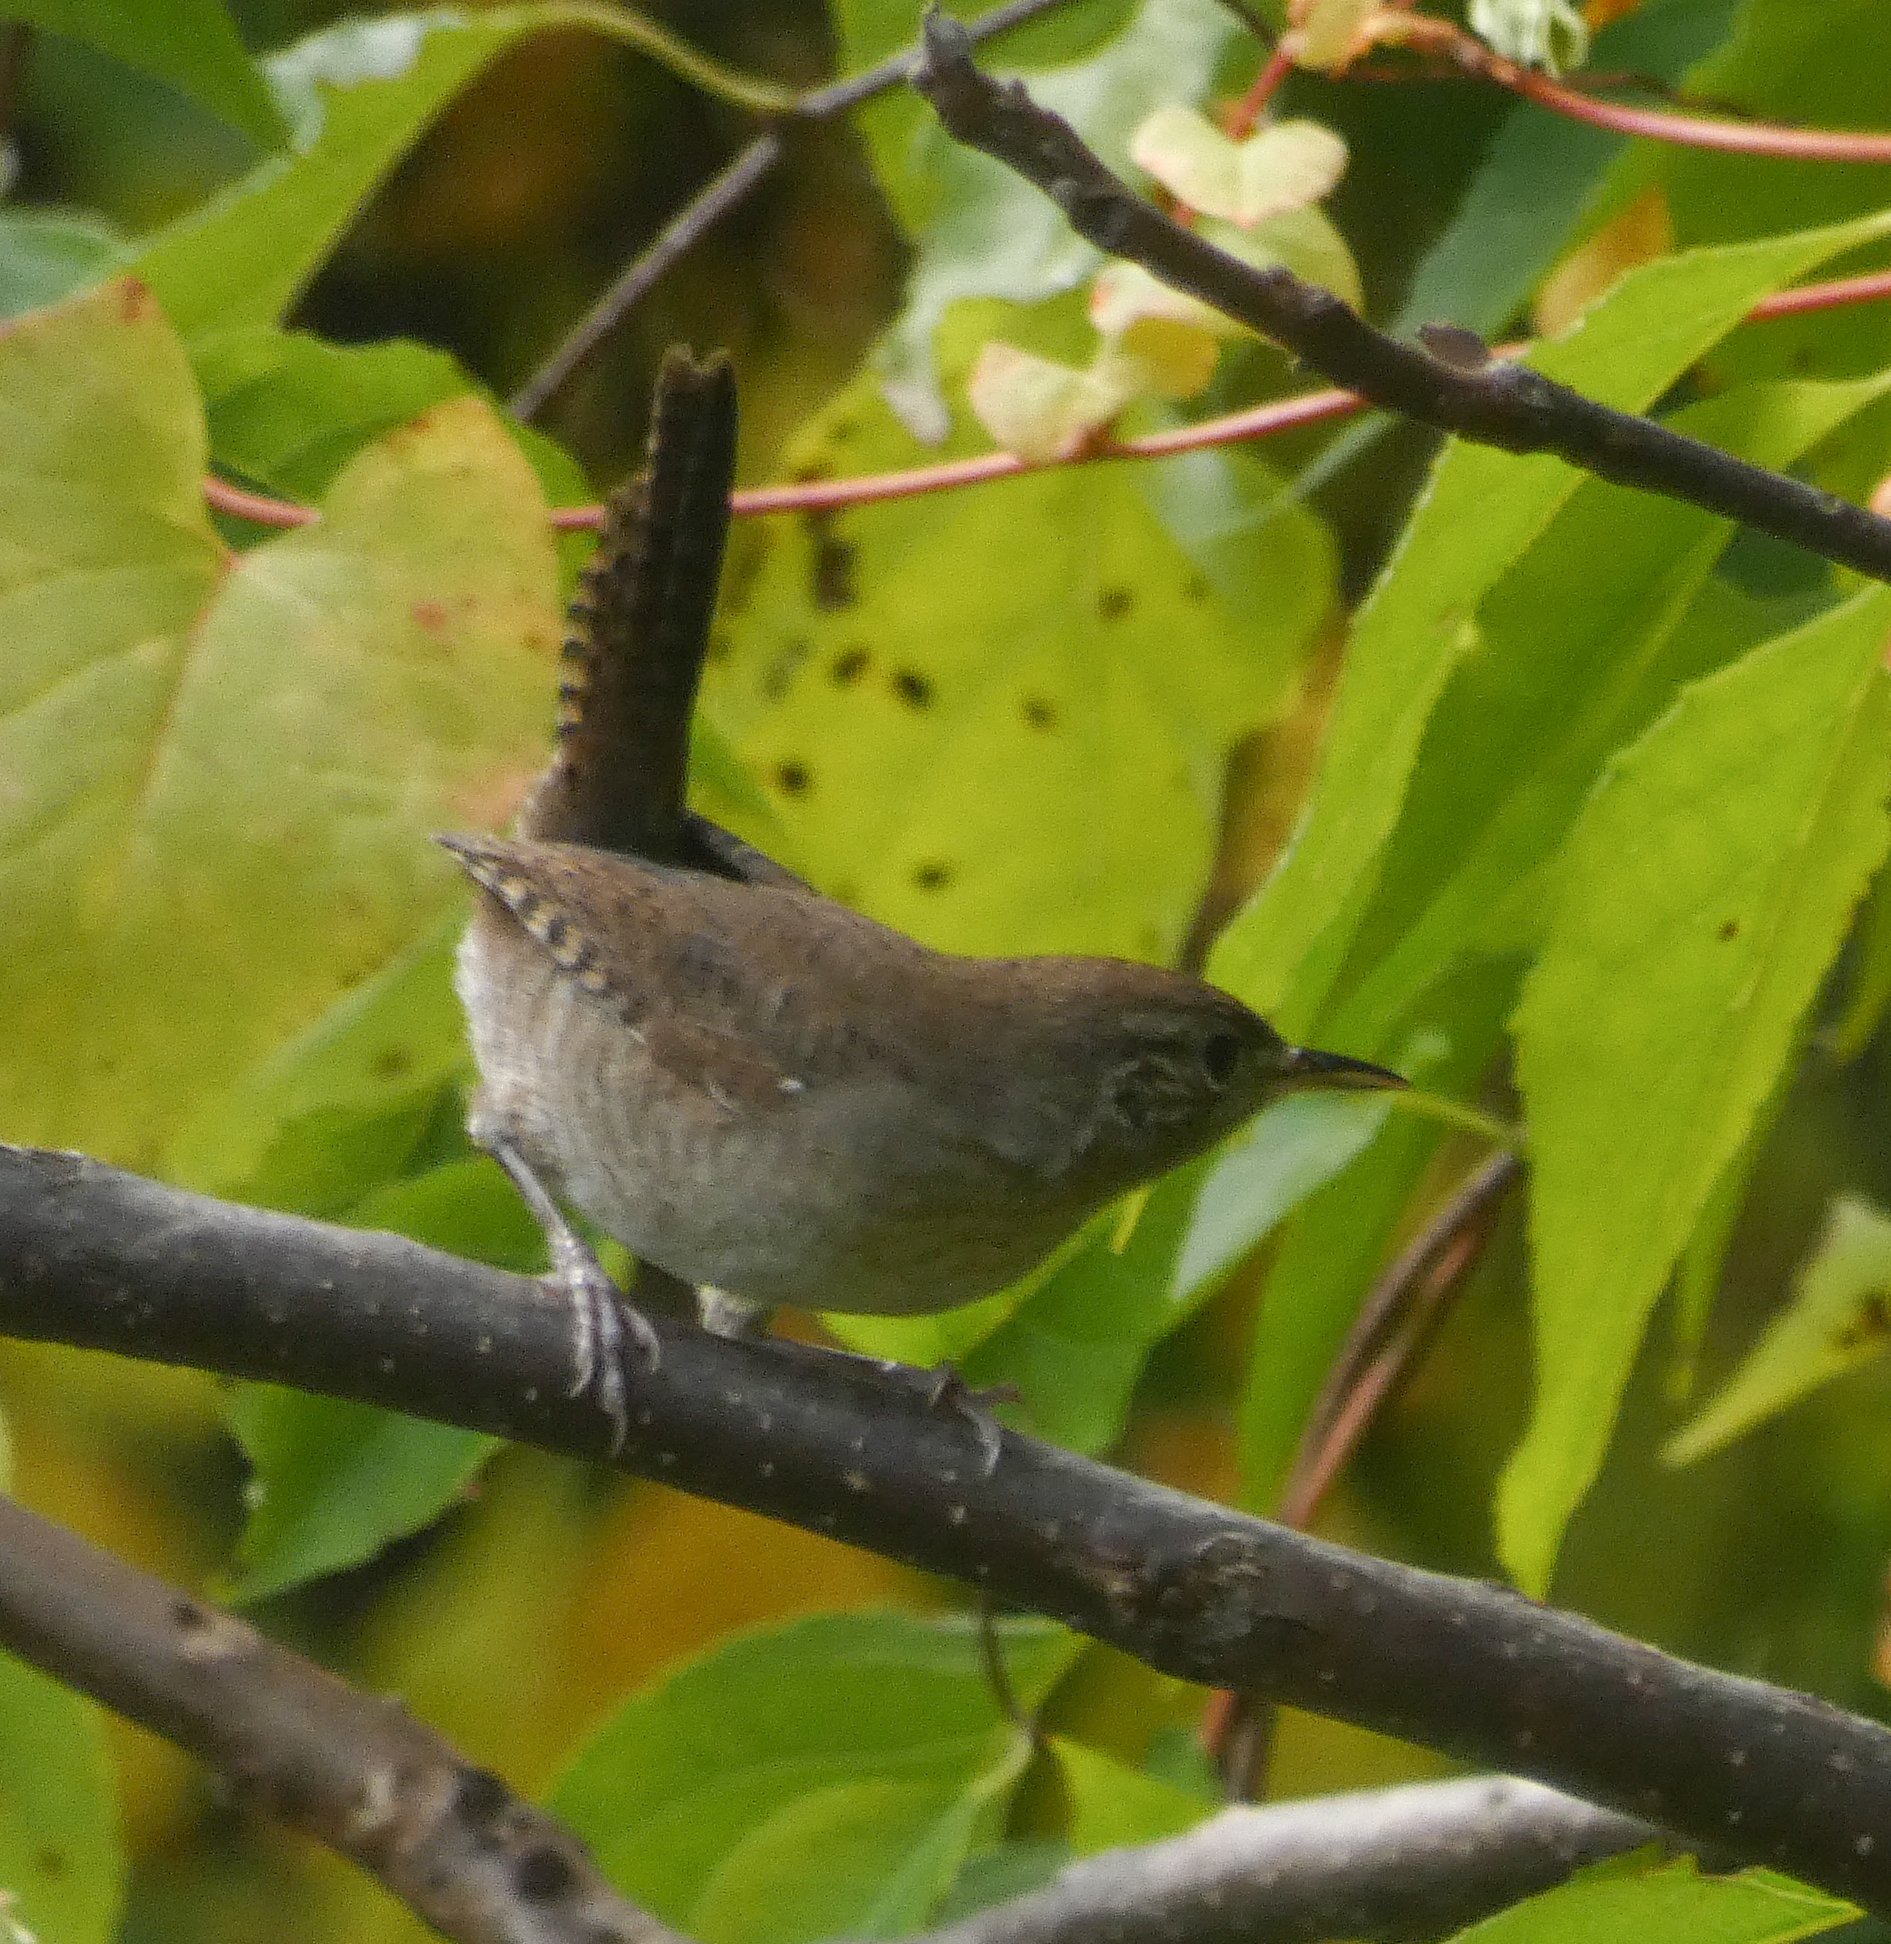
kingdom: Animalia
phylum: Chordata
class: Aves
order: Passeriformes
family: Troglodytidae
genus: Troglodytes
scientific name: Troglodytes aedon
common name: House wren
